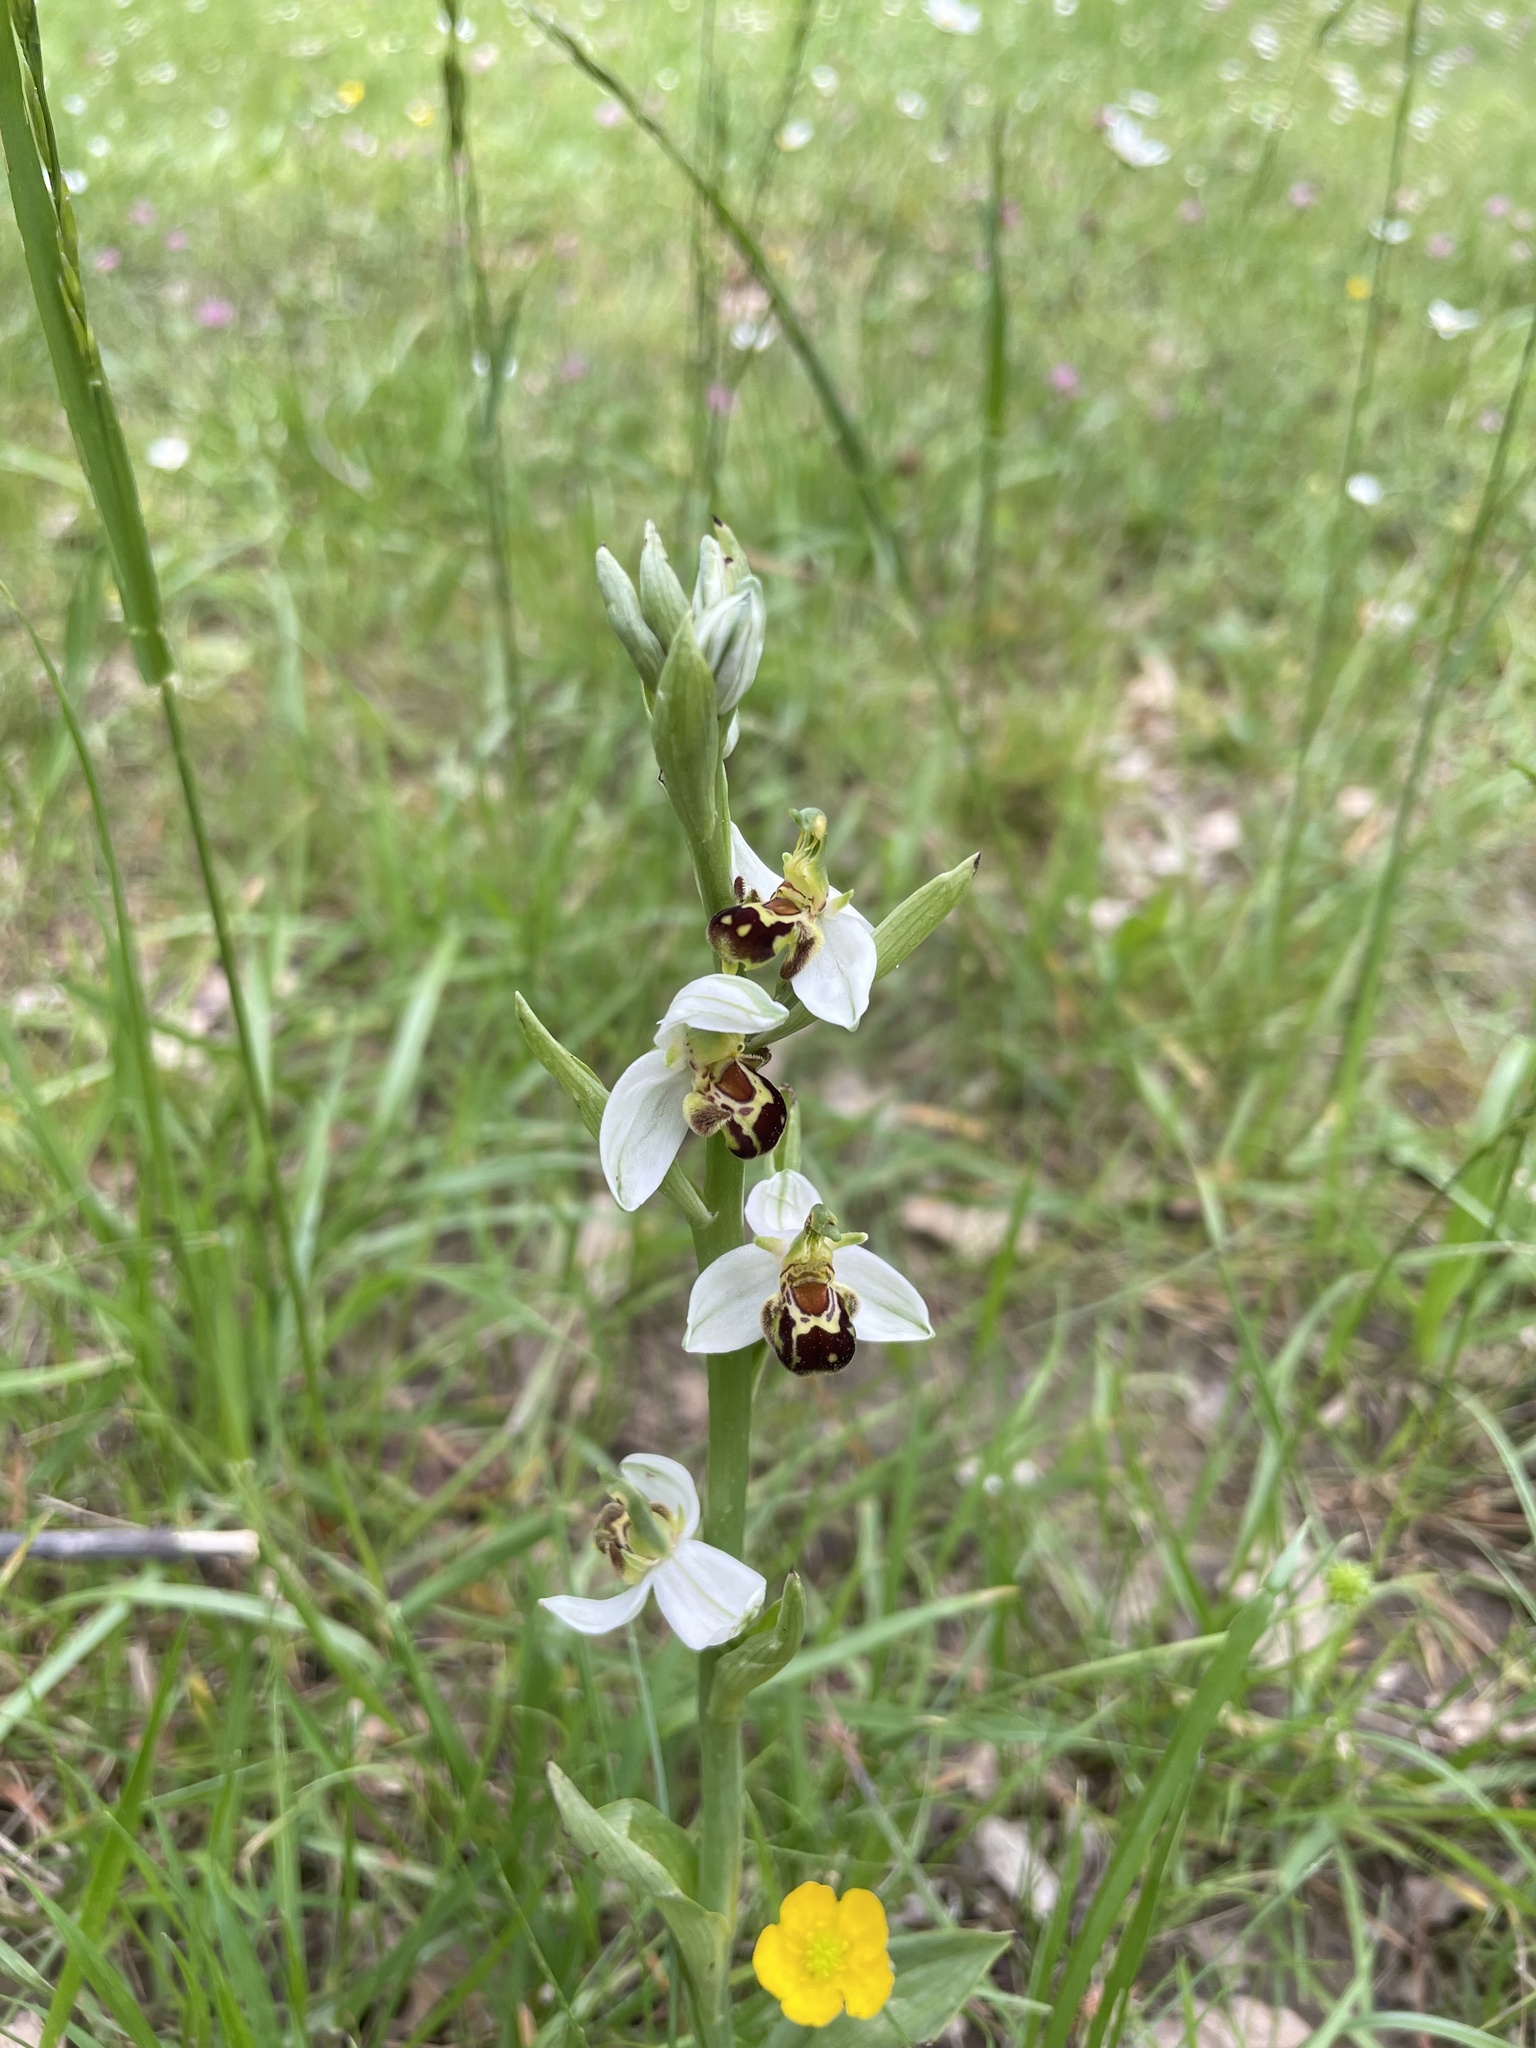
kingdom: Plantae
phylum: Tracheophyta
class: Liliopsida
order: Asparagales
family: Orchidaceae
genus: Ophrys
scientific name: Ophrys apifera
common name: Bee orchid
